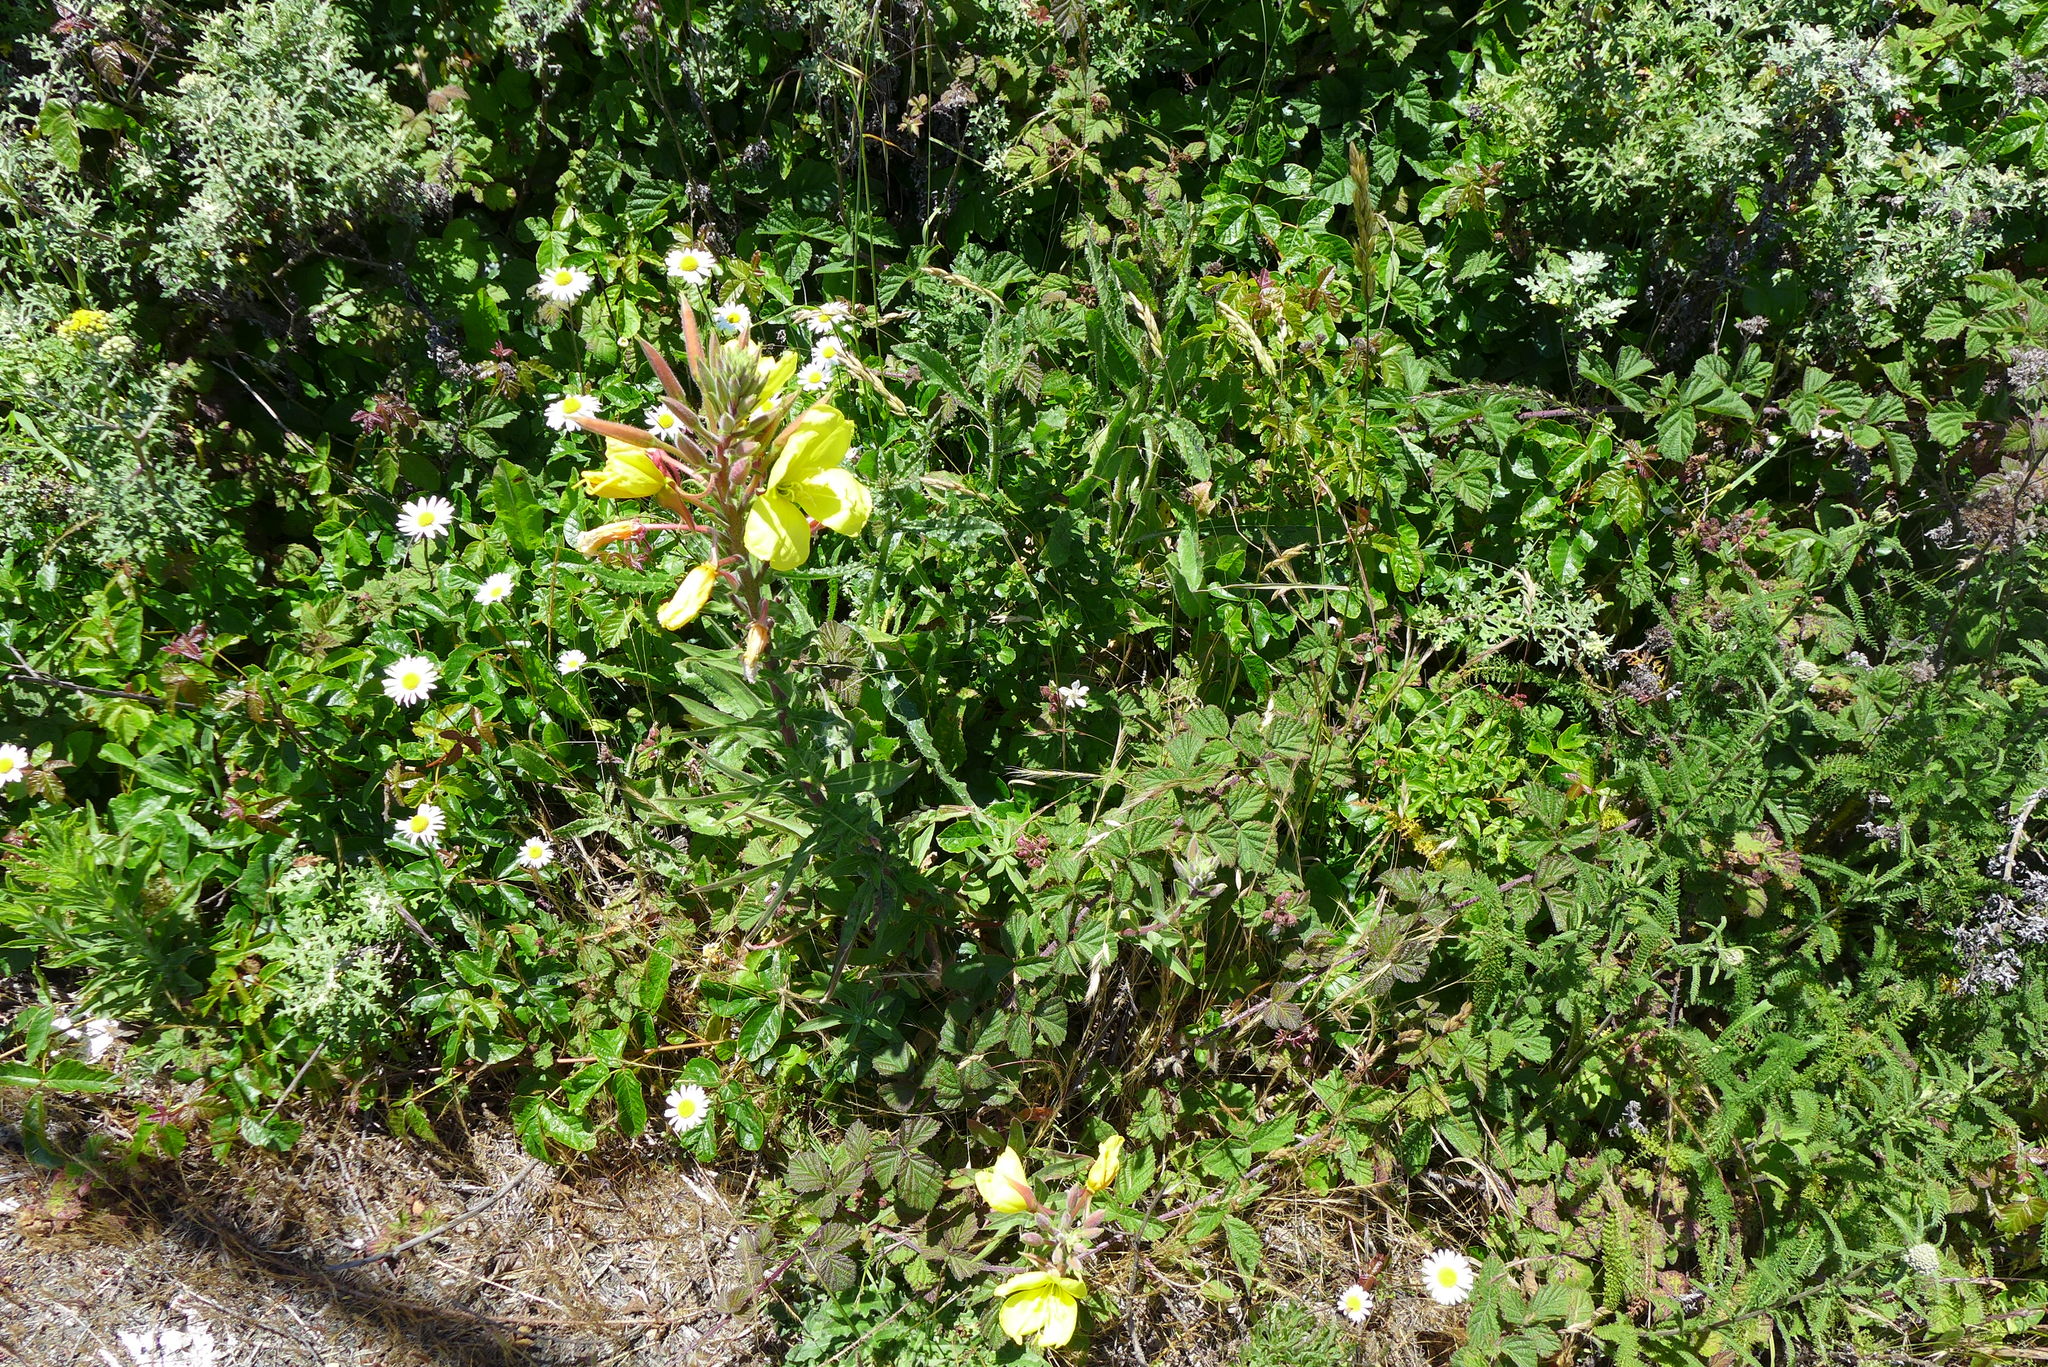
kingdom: Plantae
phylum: Tracheophyta
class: Magnoliopsida
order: Myrtales
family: Onagraceae
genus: Oenothera
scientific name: Oenothera elata
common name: Hooker's evening-primrose
